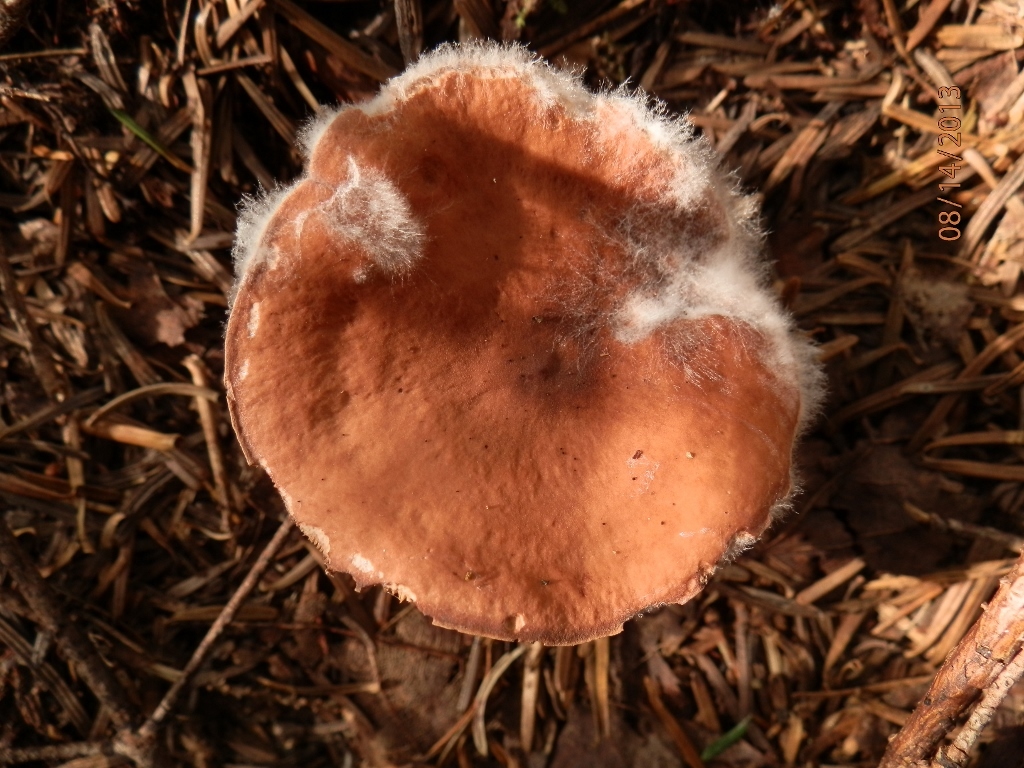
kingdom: Fungi
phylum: Ascomycota
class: Sordariomycetes
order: Hypocreales
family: Hypocreaceae
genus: Hypomyces
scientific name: Hypomyces ochraceus
